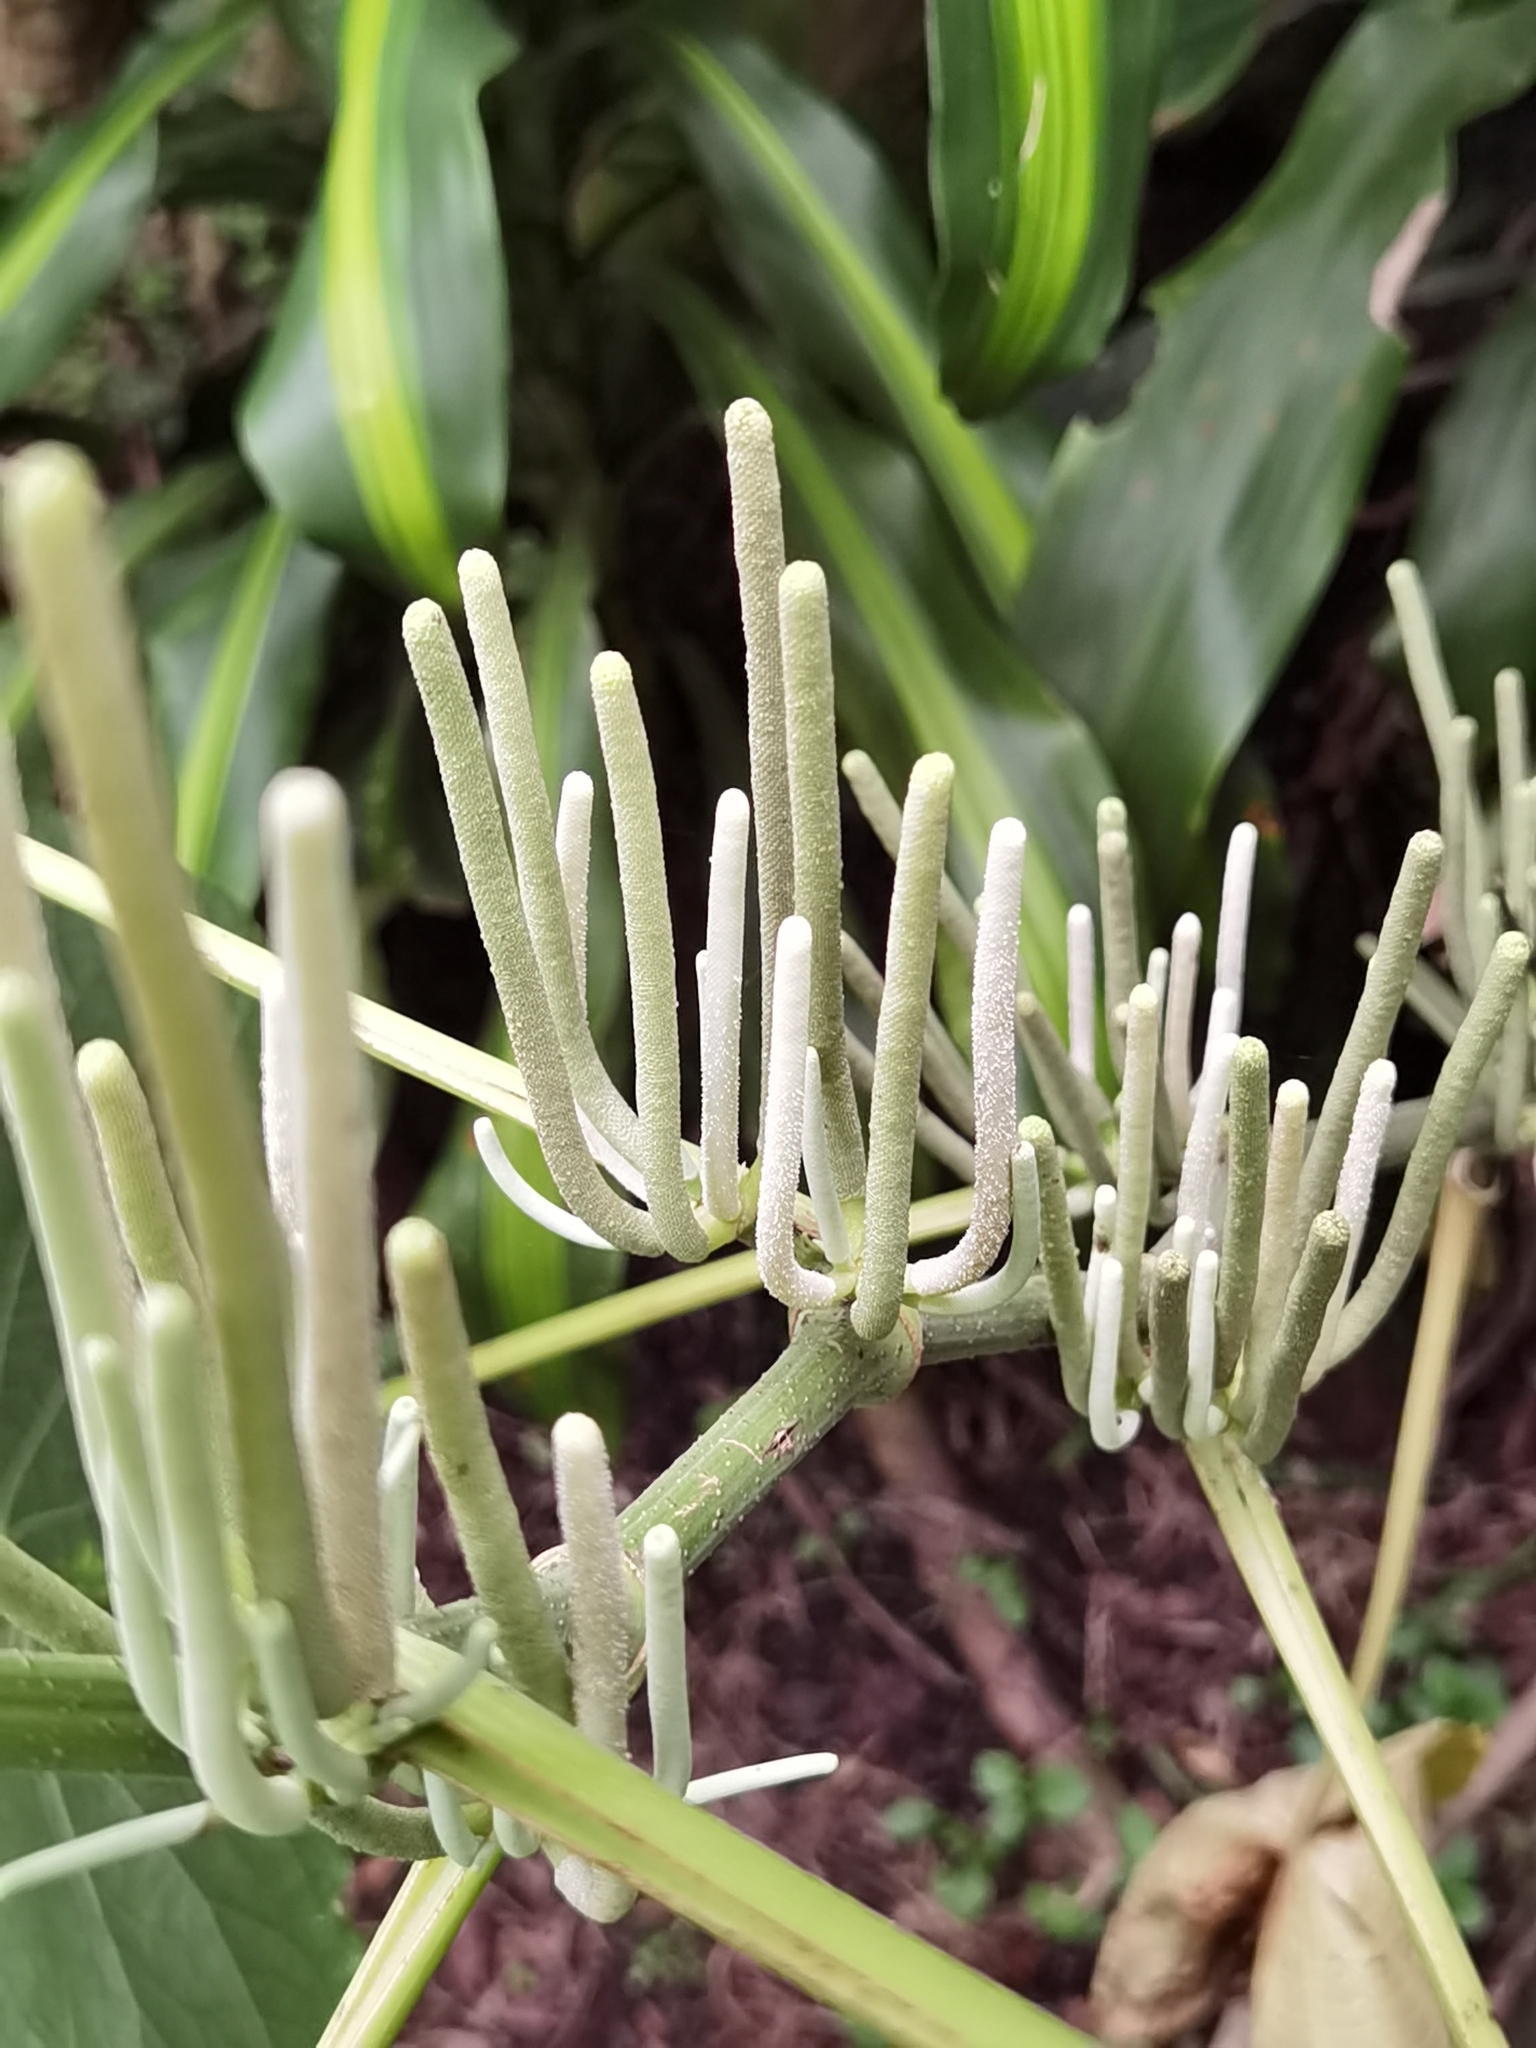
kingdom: Plantae
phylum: Tracheophyta
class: Magnoliopsida
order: Piperales
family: Piperaceae
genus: Piper
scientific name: Piper umbellatum
